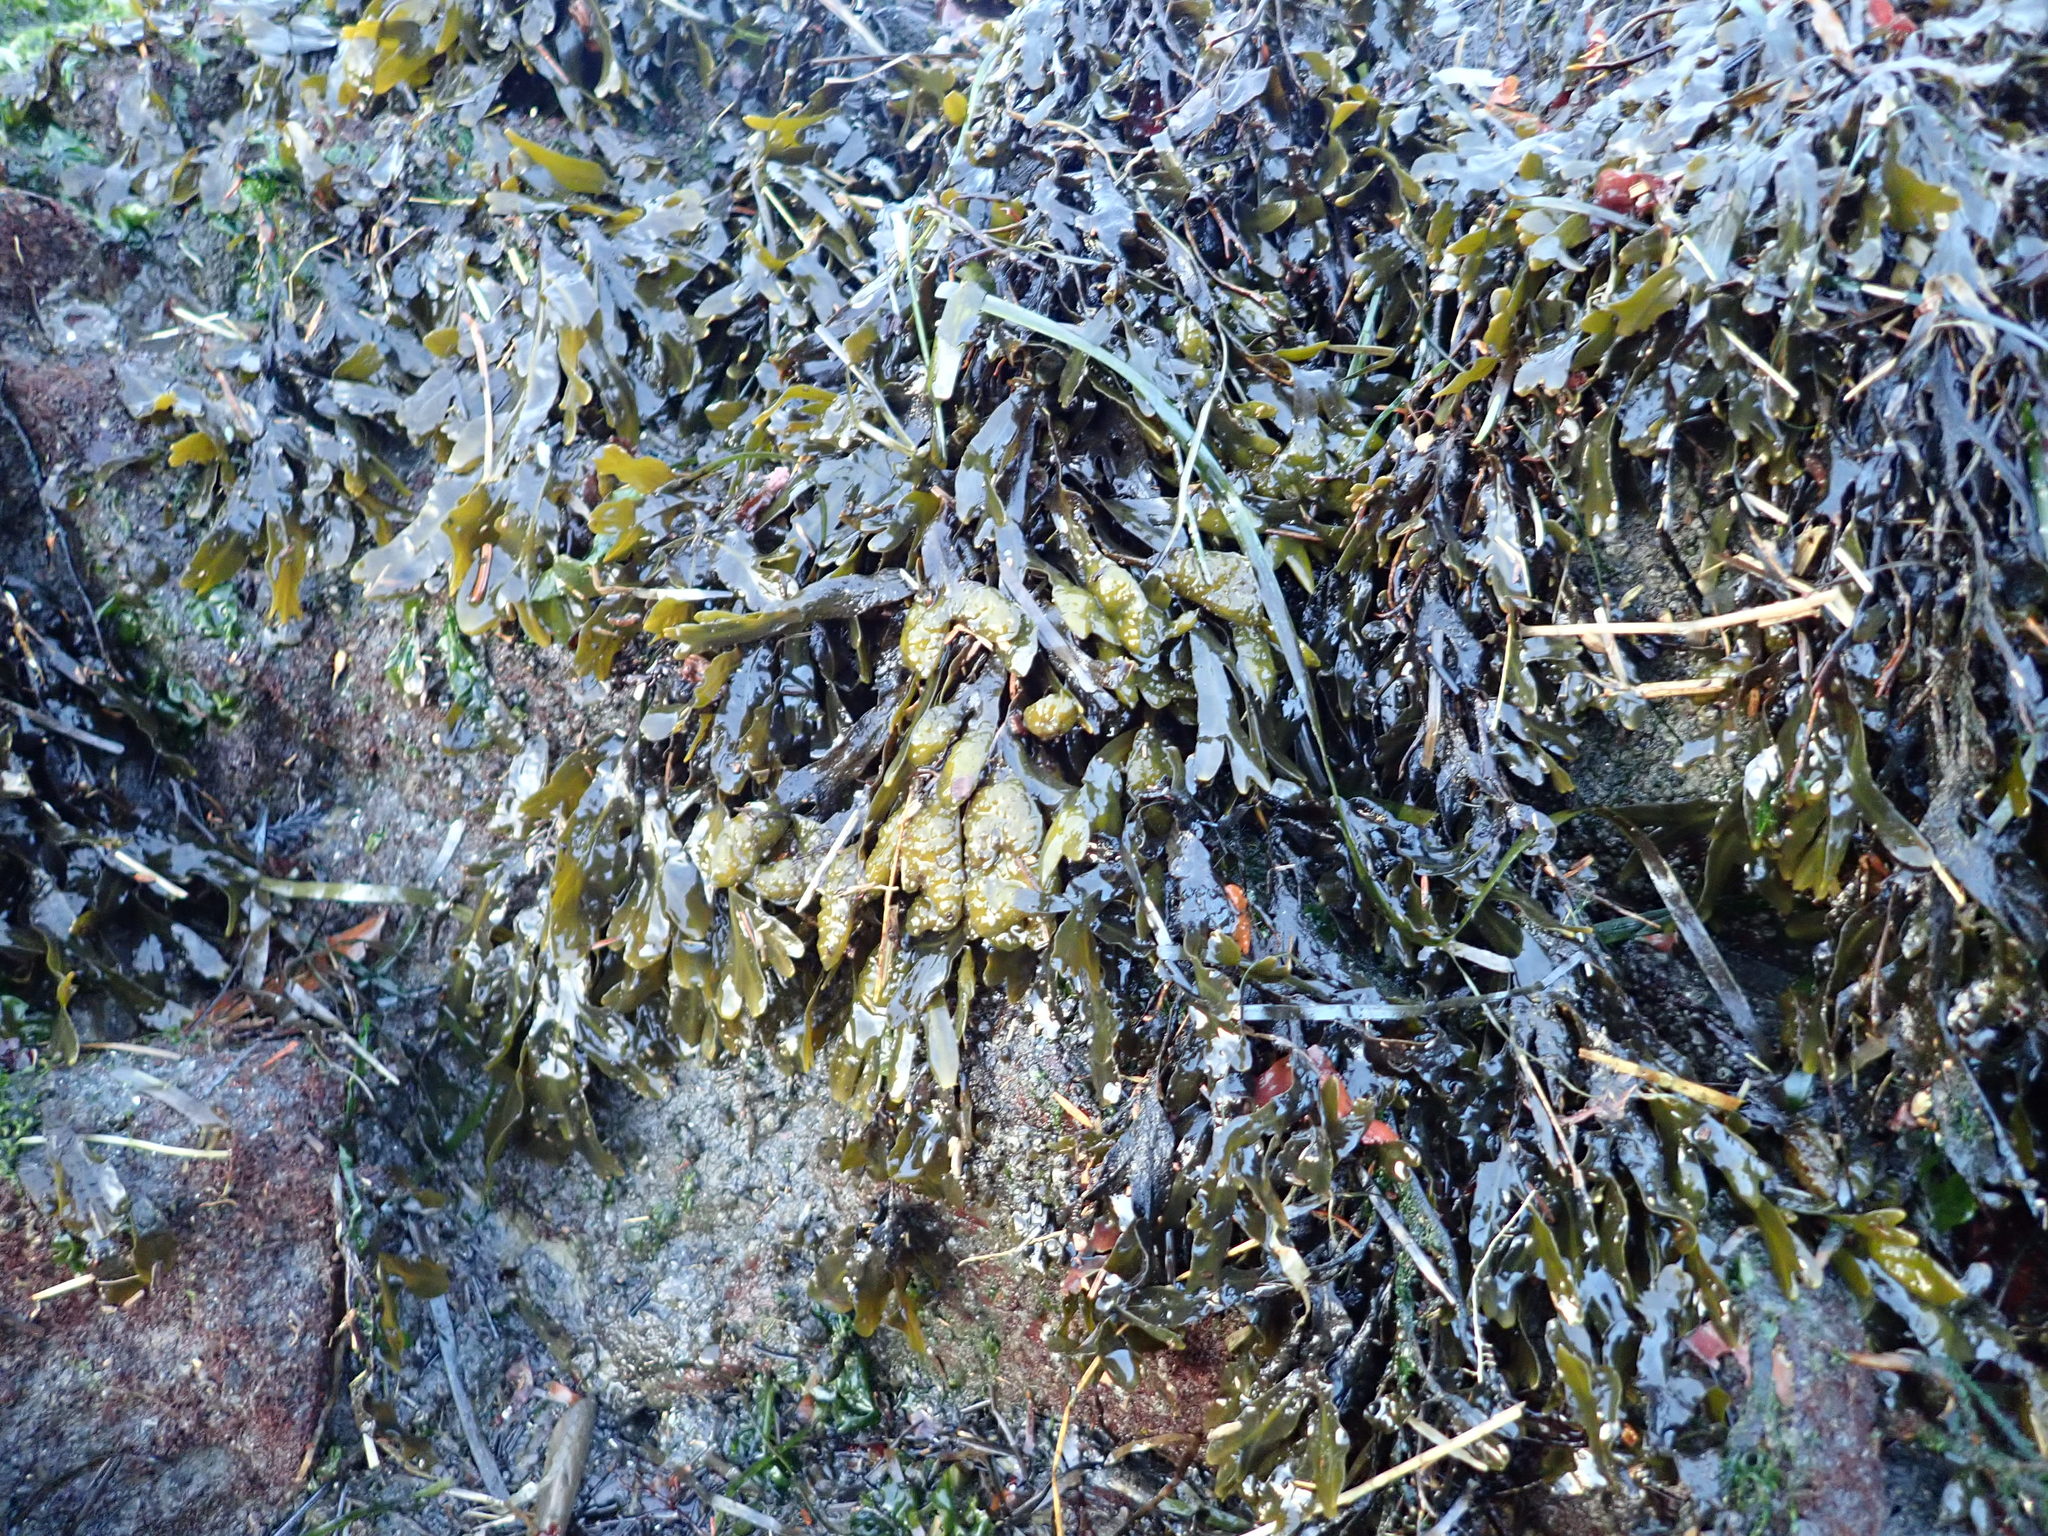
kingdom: Chromista
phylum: Ochrophyta
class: Phaeophyceae
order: Fucales
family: Fucaceae
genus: Fucus
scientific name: Fucus distichus
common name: Rockweed
